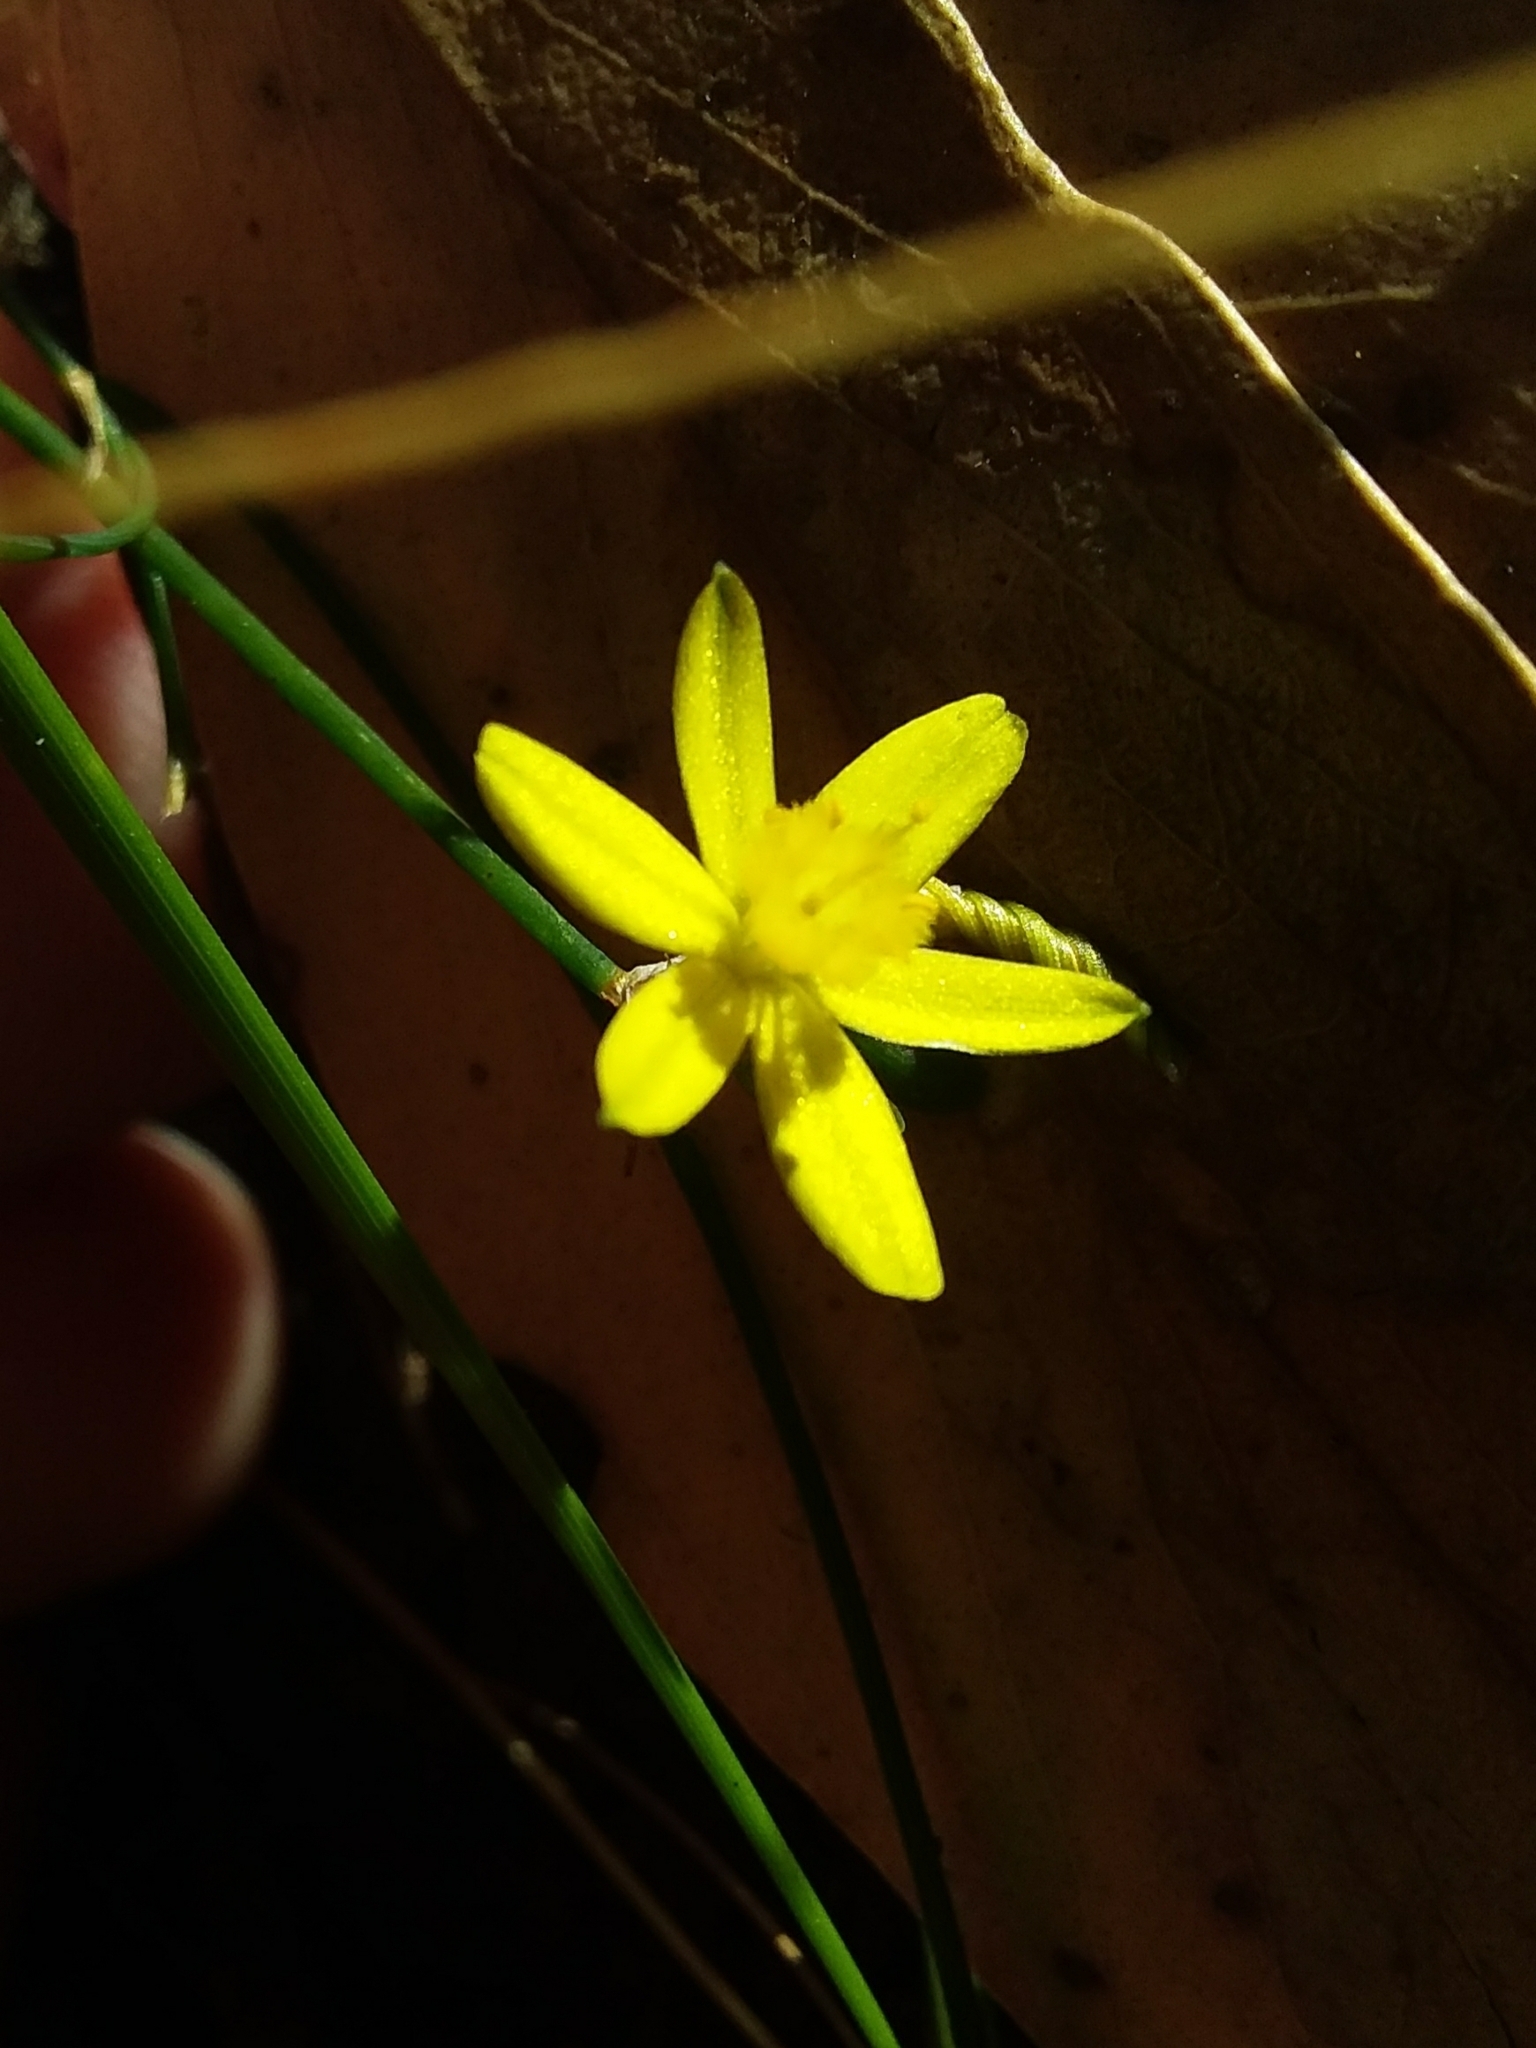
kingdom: Plantae
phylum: Tracheophyta
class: Liliopsida
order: Asparagales
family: Asphodelaceae
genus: Tricoryne
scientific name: Tricoryne elatior
